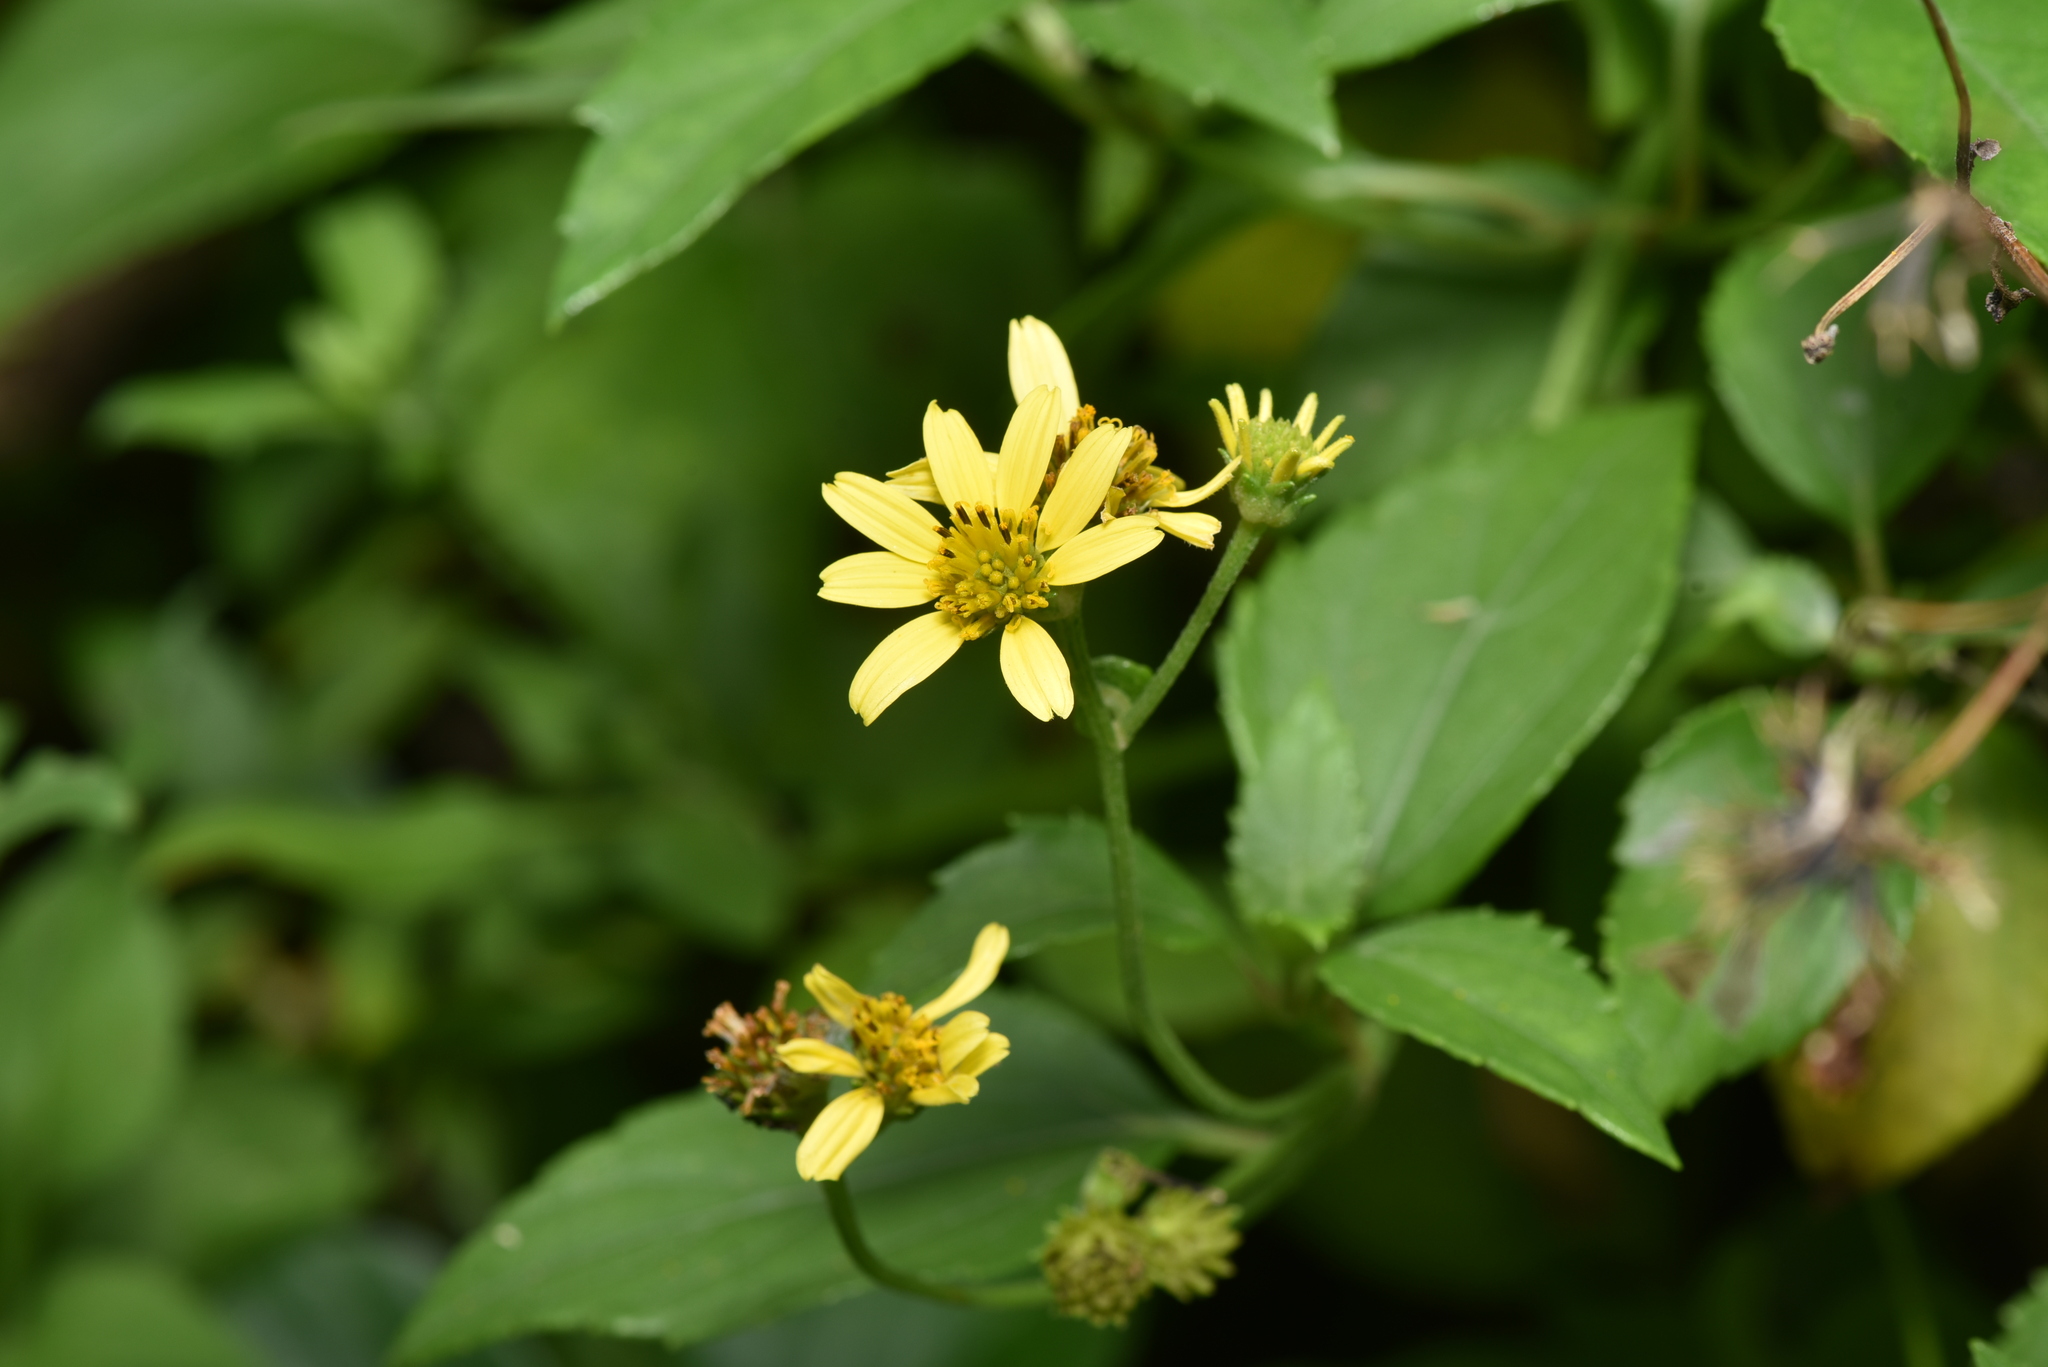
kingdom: Plantae
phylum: Tracheophyta
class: Magnoliopsida
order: Asterales
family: Asteraceae
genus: Wollastonia
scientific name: Wollastonia biflora
